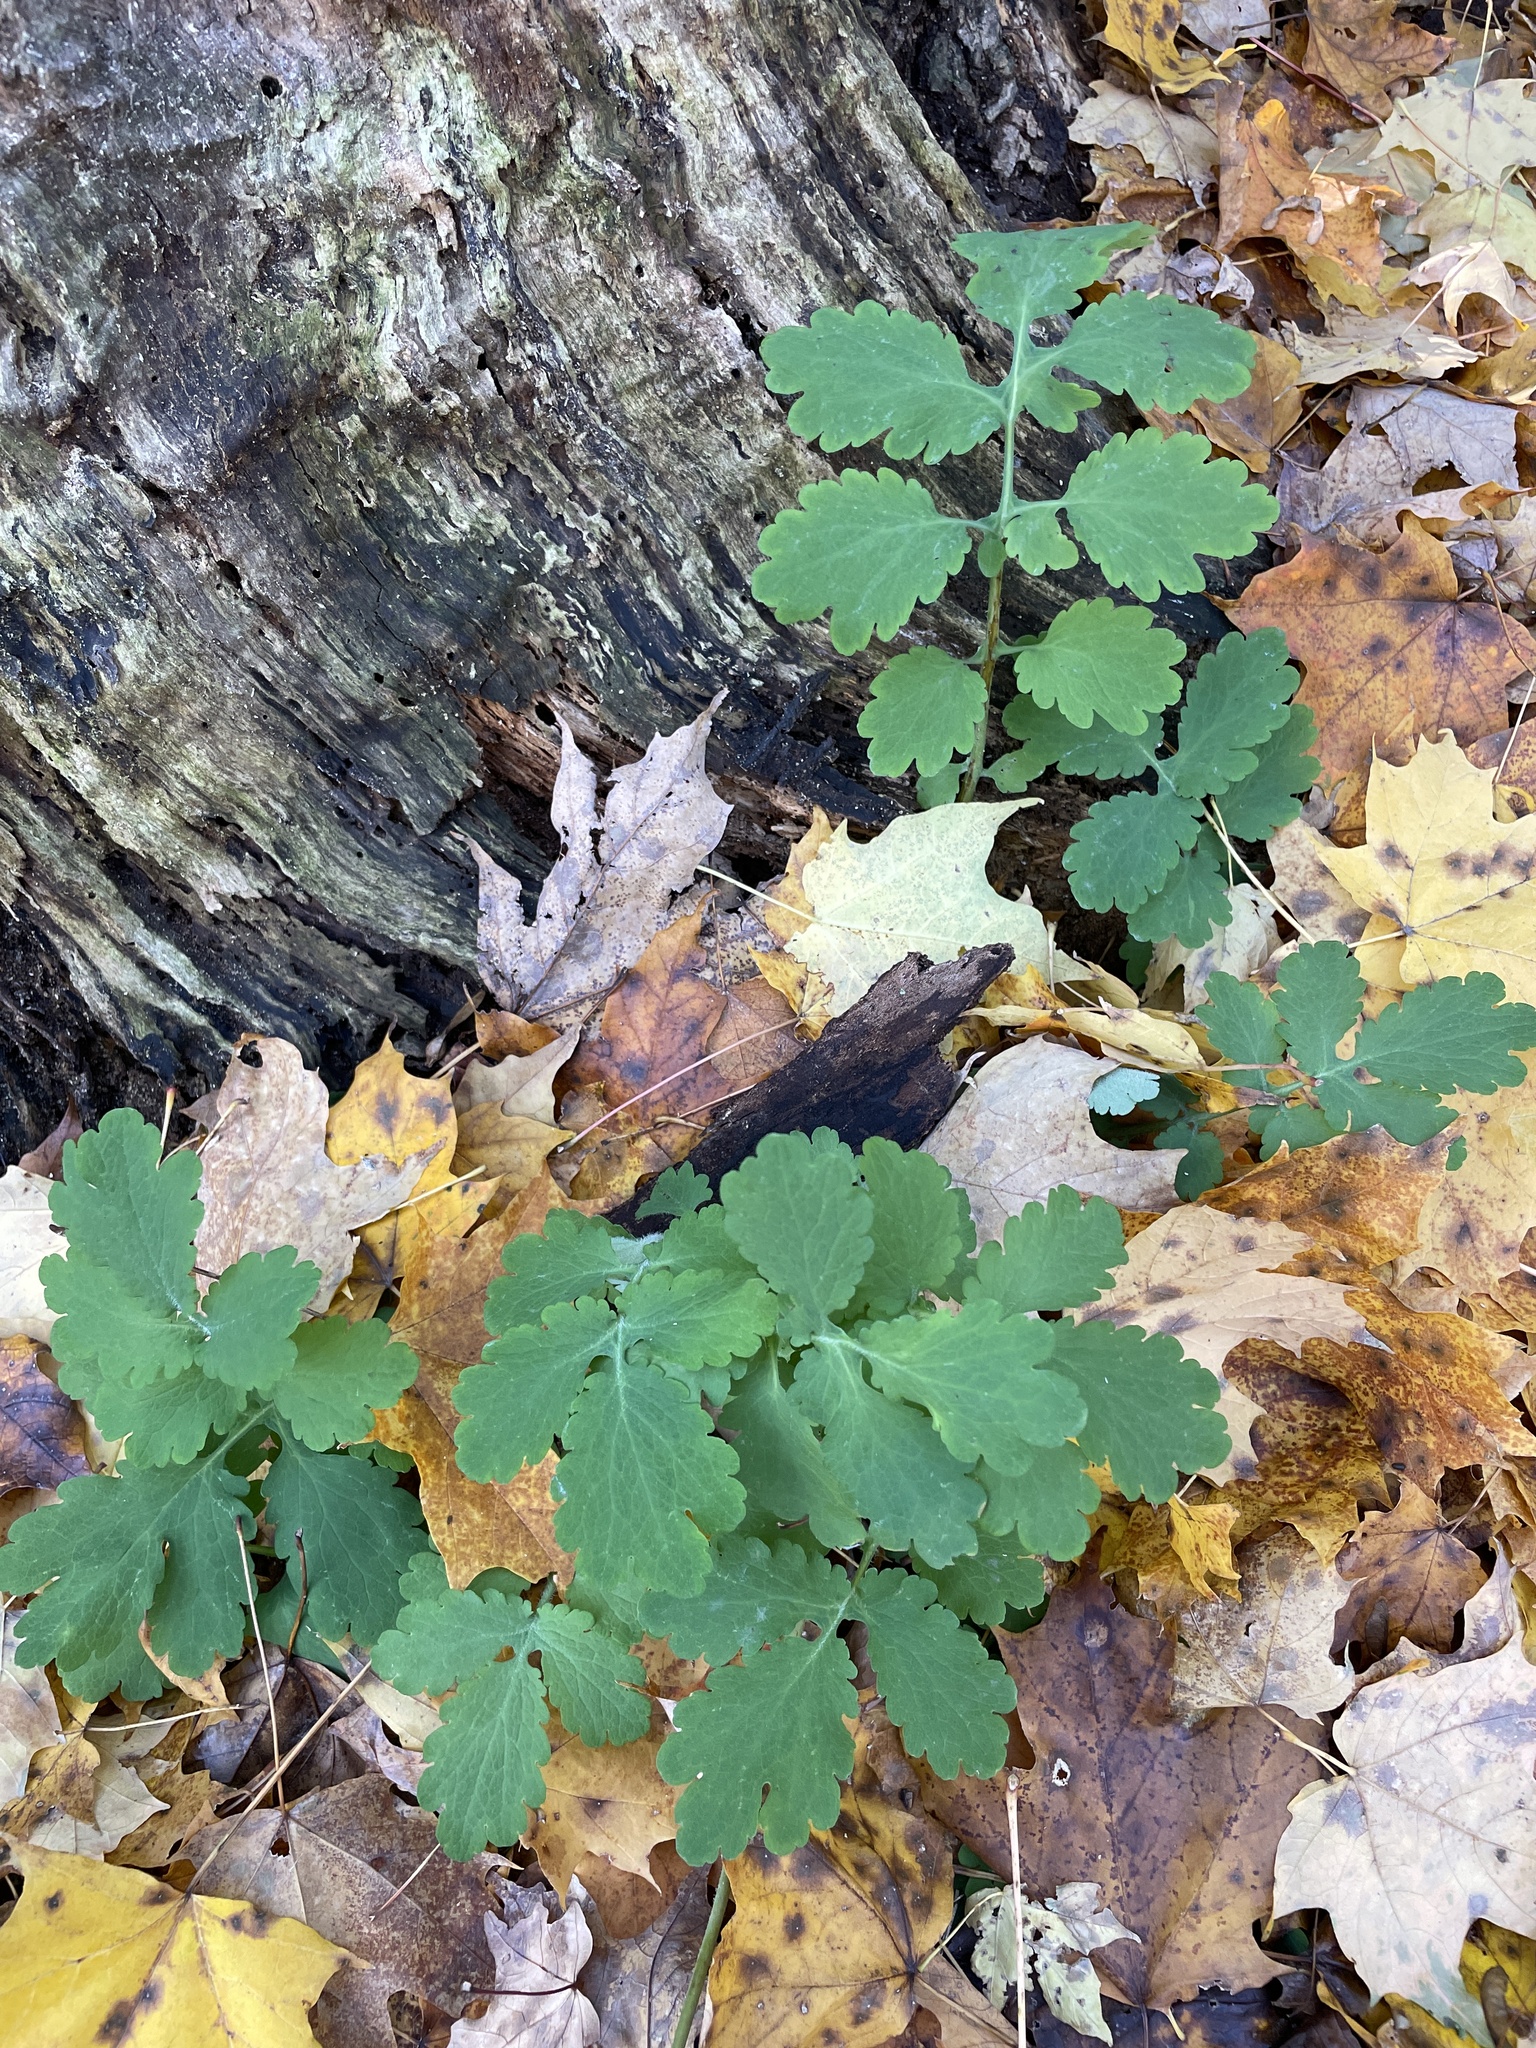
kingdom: Plantae
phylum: Tracheophyta
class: Magnoliopsida
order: Ranunculales
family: Papaveraceae
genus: Chelidonium
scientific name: Chelidonium majus
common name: Greater celandine
